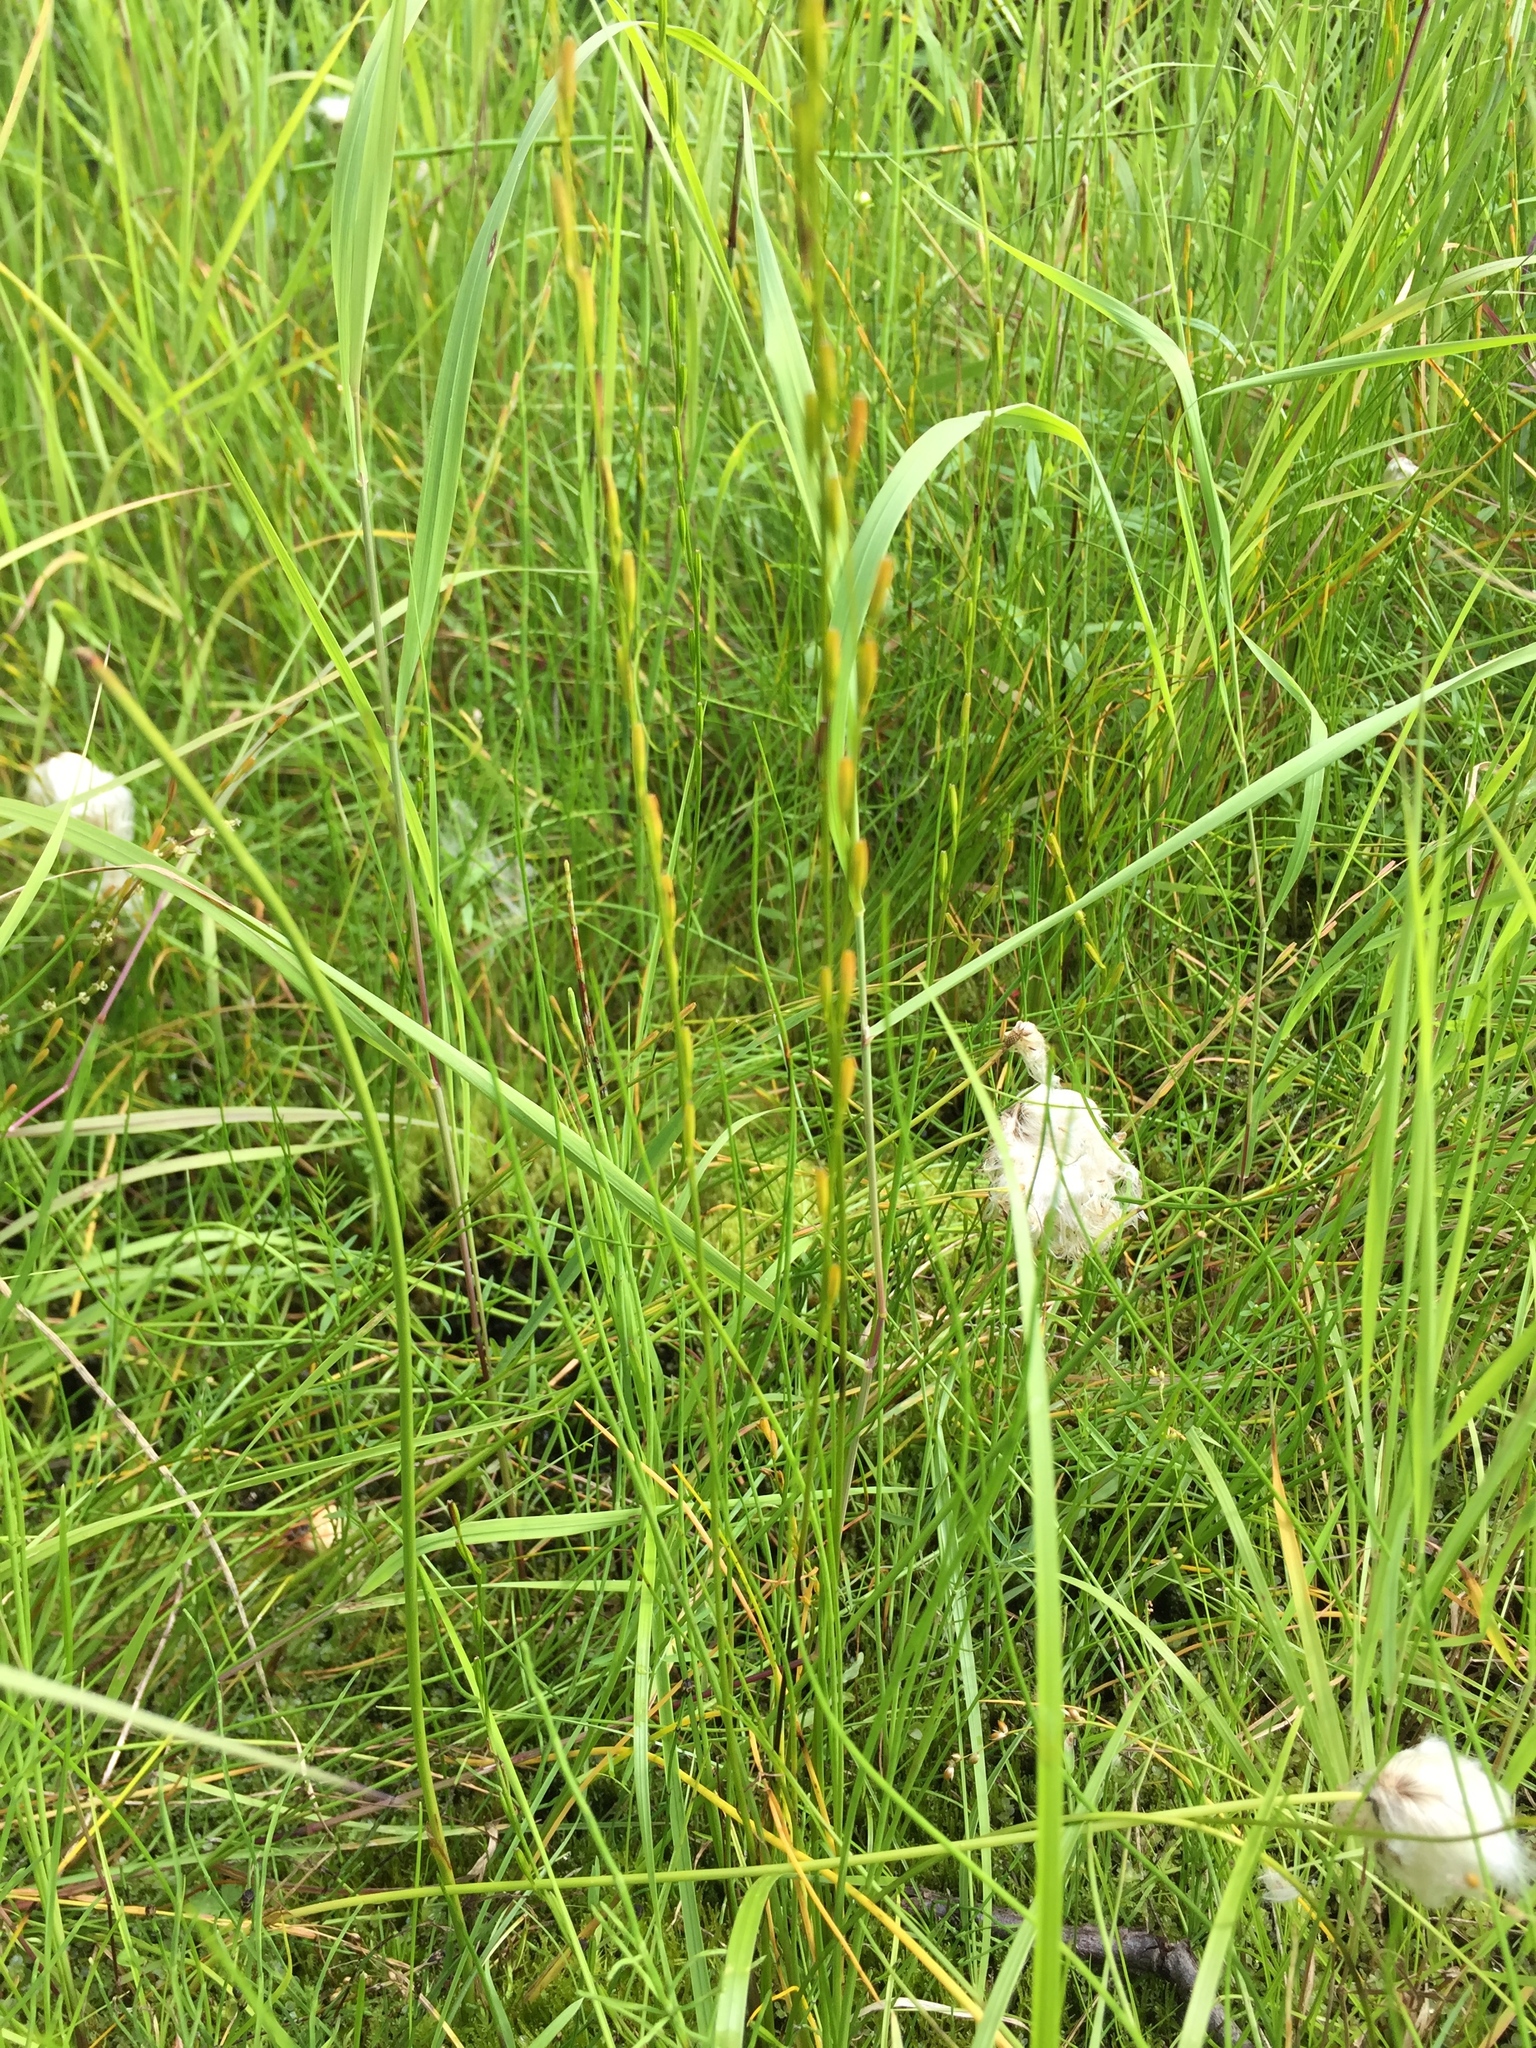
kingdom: Plantae
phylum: Tracheophyta
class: Liliopsida
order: Alismatales
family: Juncaginaceae
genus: Triglochin
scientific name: Triglochin palustris
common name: Marsh arrowgrass
